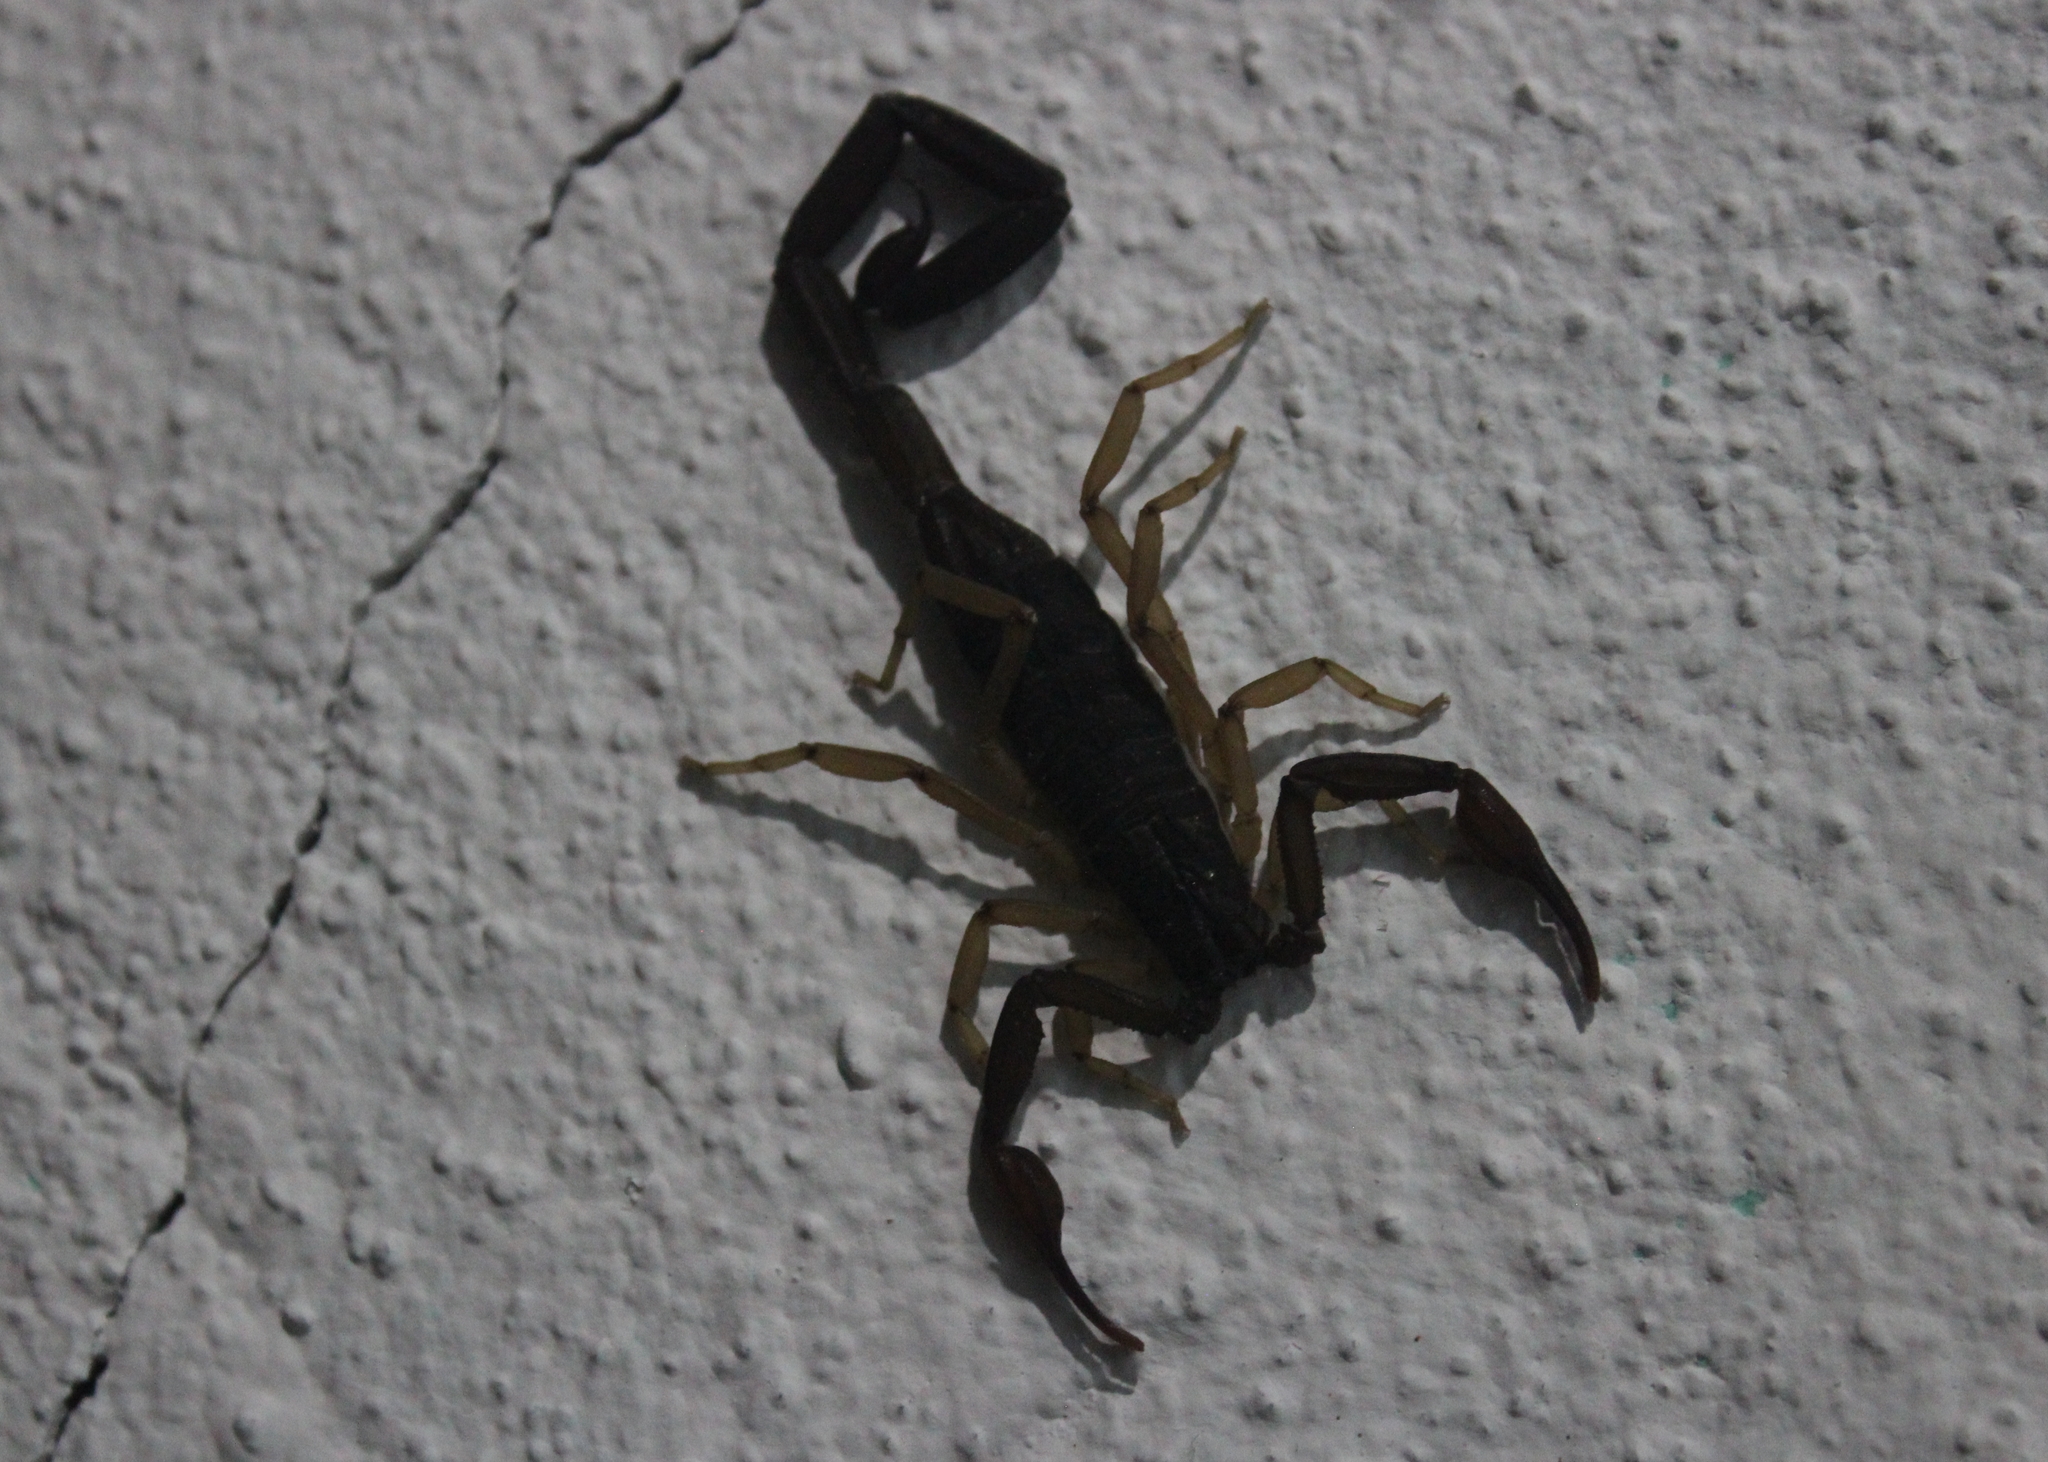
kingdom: Animalia
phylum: Arthropoda
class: Arachnida
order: Scorpiones
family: Buthidae
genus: Centruroides
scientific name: Centruroides gracilis
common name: Scorpions
